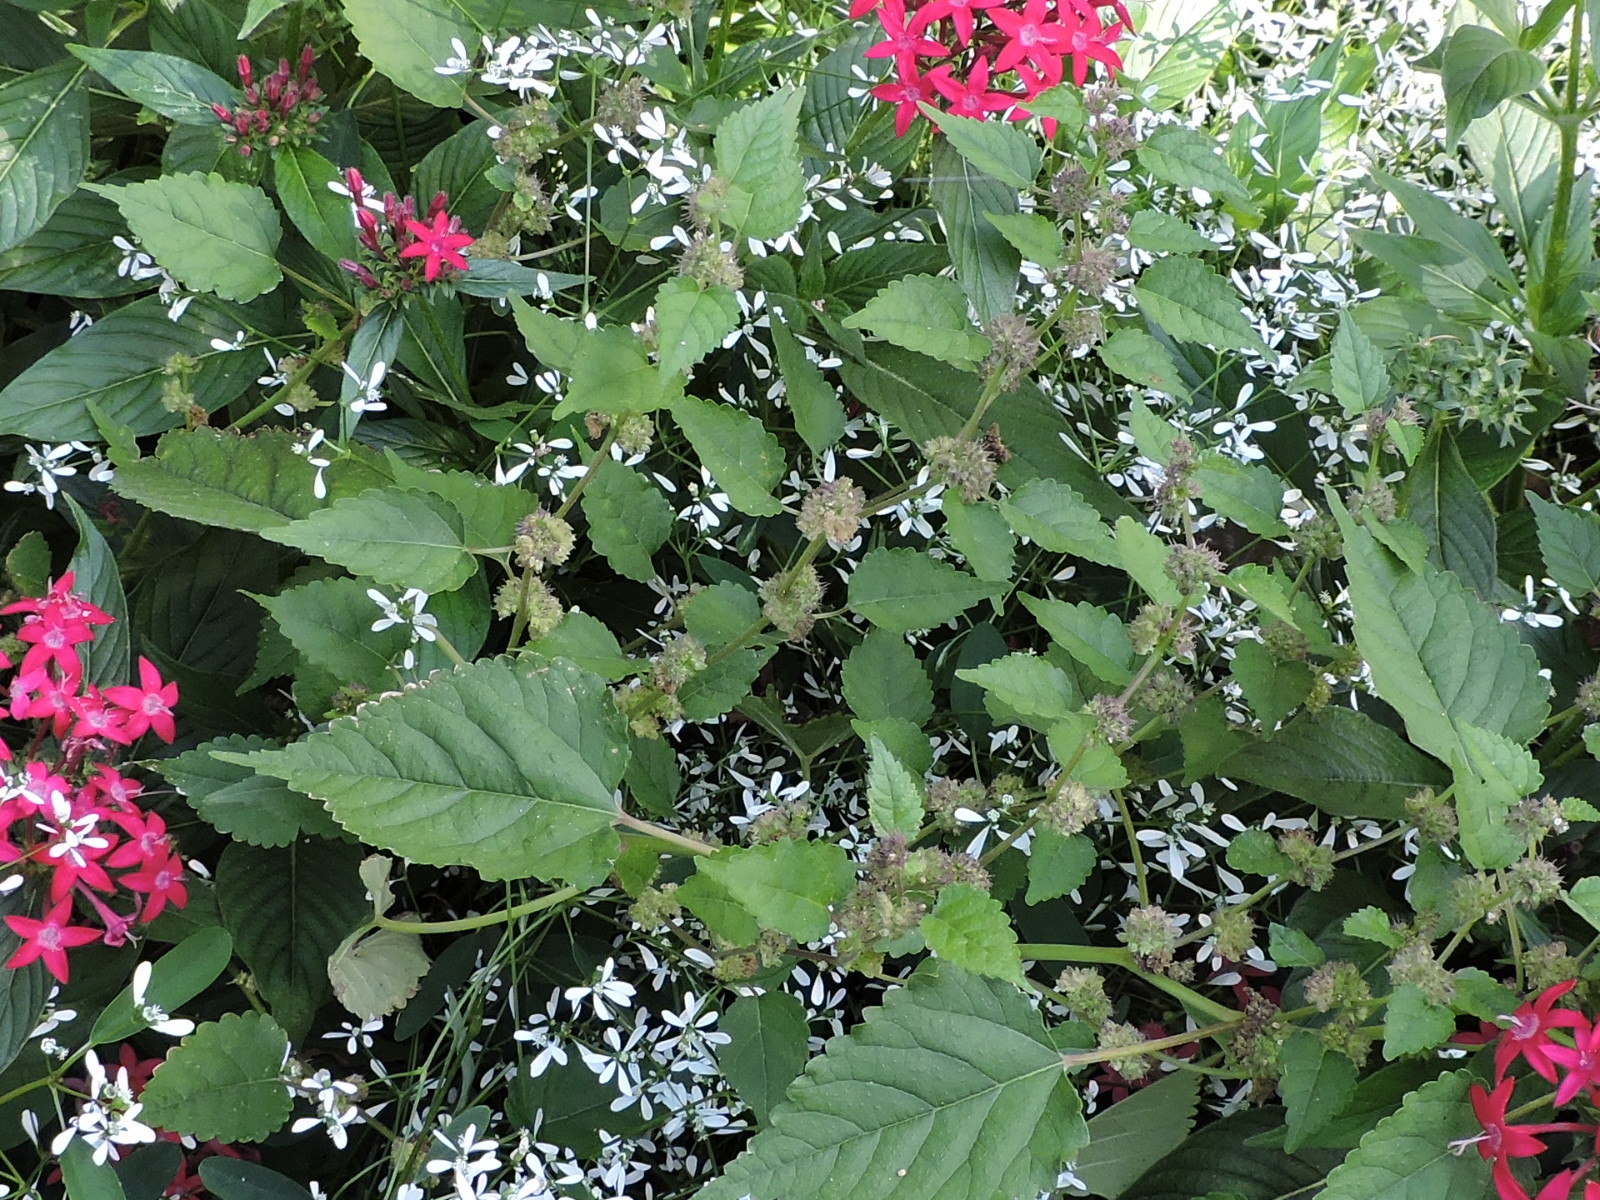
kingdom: Plantae
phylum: Tracheophyta
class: Magnoliopsida
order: Rosales
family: Moraceae
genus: Fatoua
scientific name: Fatoua villosa
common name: Hairy crabweed
